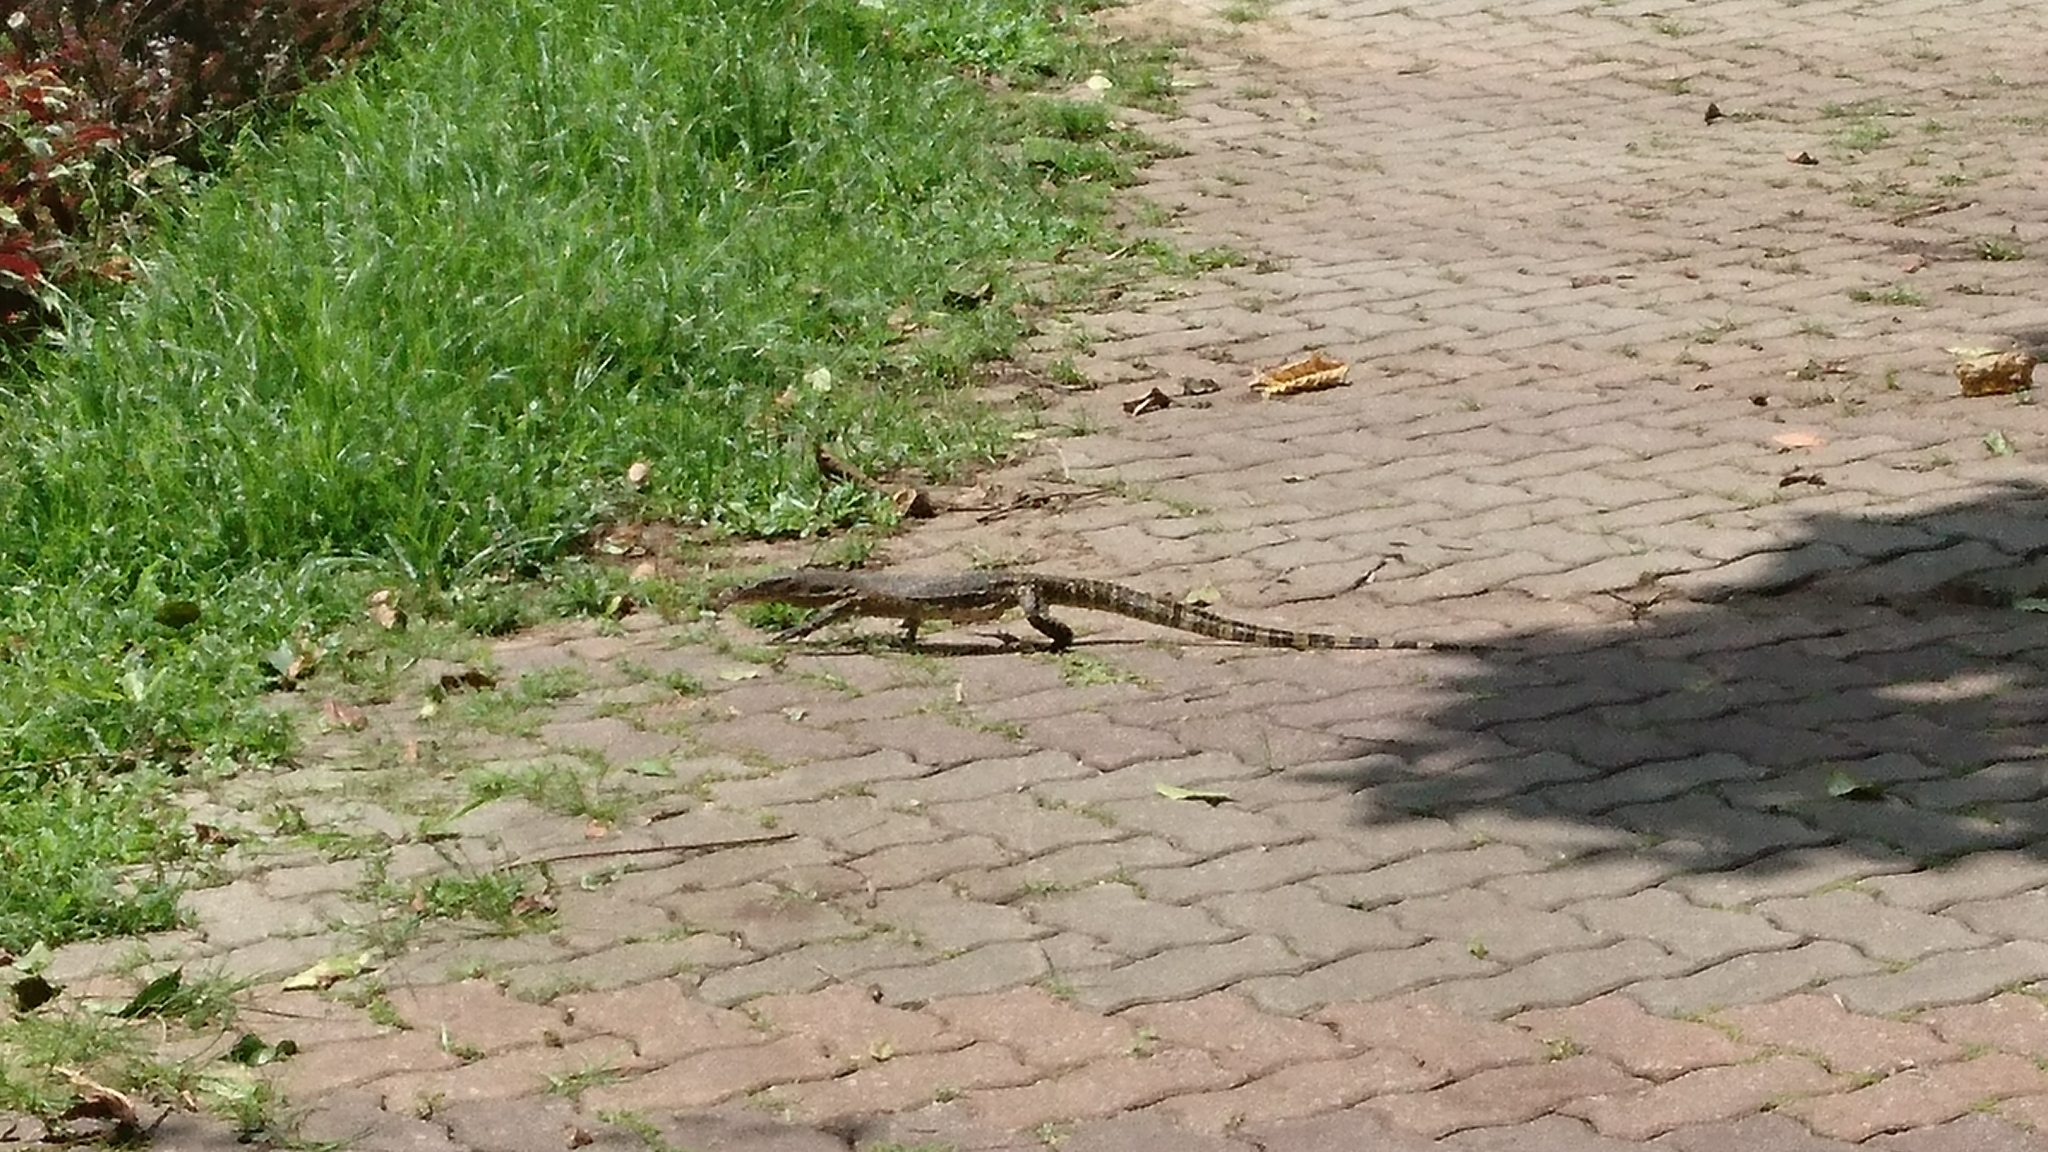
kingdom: Animalia
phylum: Chordata
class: Squamata
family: Varanidae
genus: Varanus
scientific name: Varanus salvator
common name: Common water monitor
